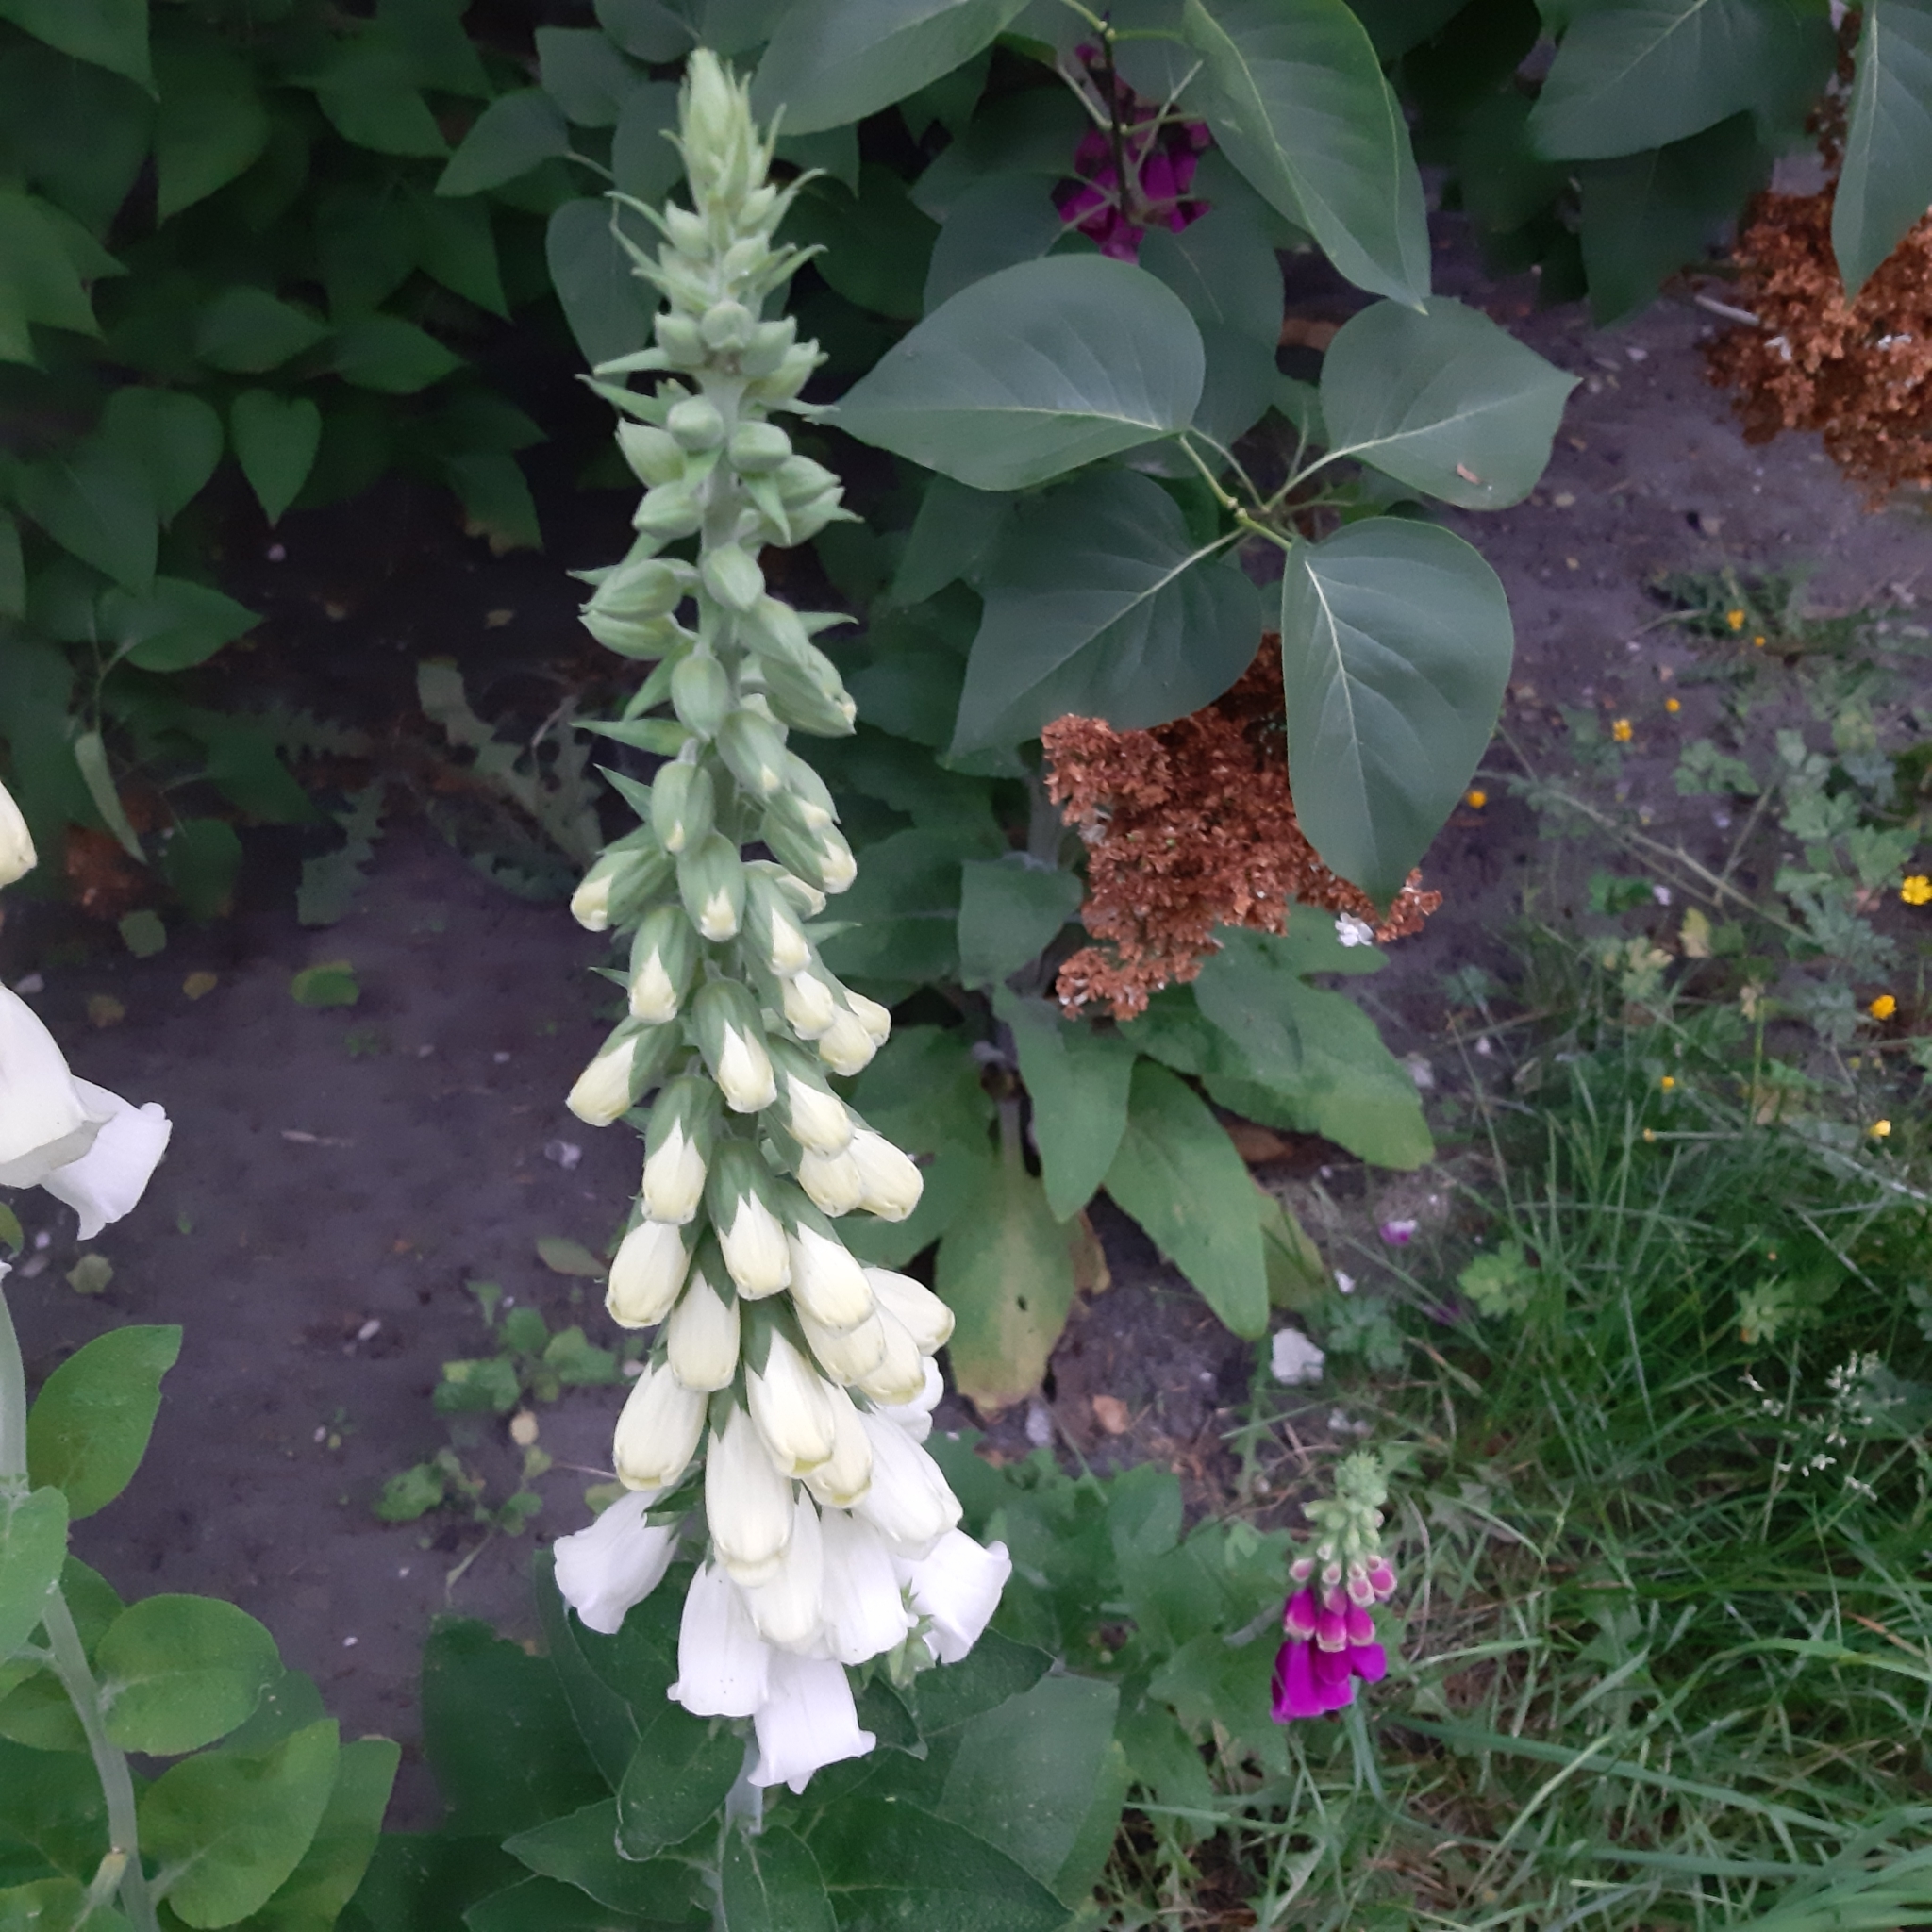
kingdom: Plantae
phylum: Tracheophyta
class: Magnoliopsida
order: Lamiales
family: Plantaginaceae
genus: Digitalis
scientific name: Digitalis purpurea
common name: Foxglove
